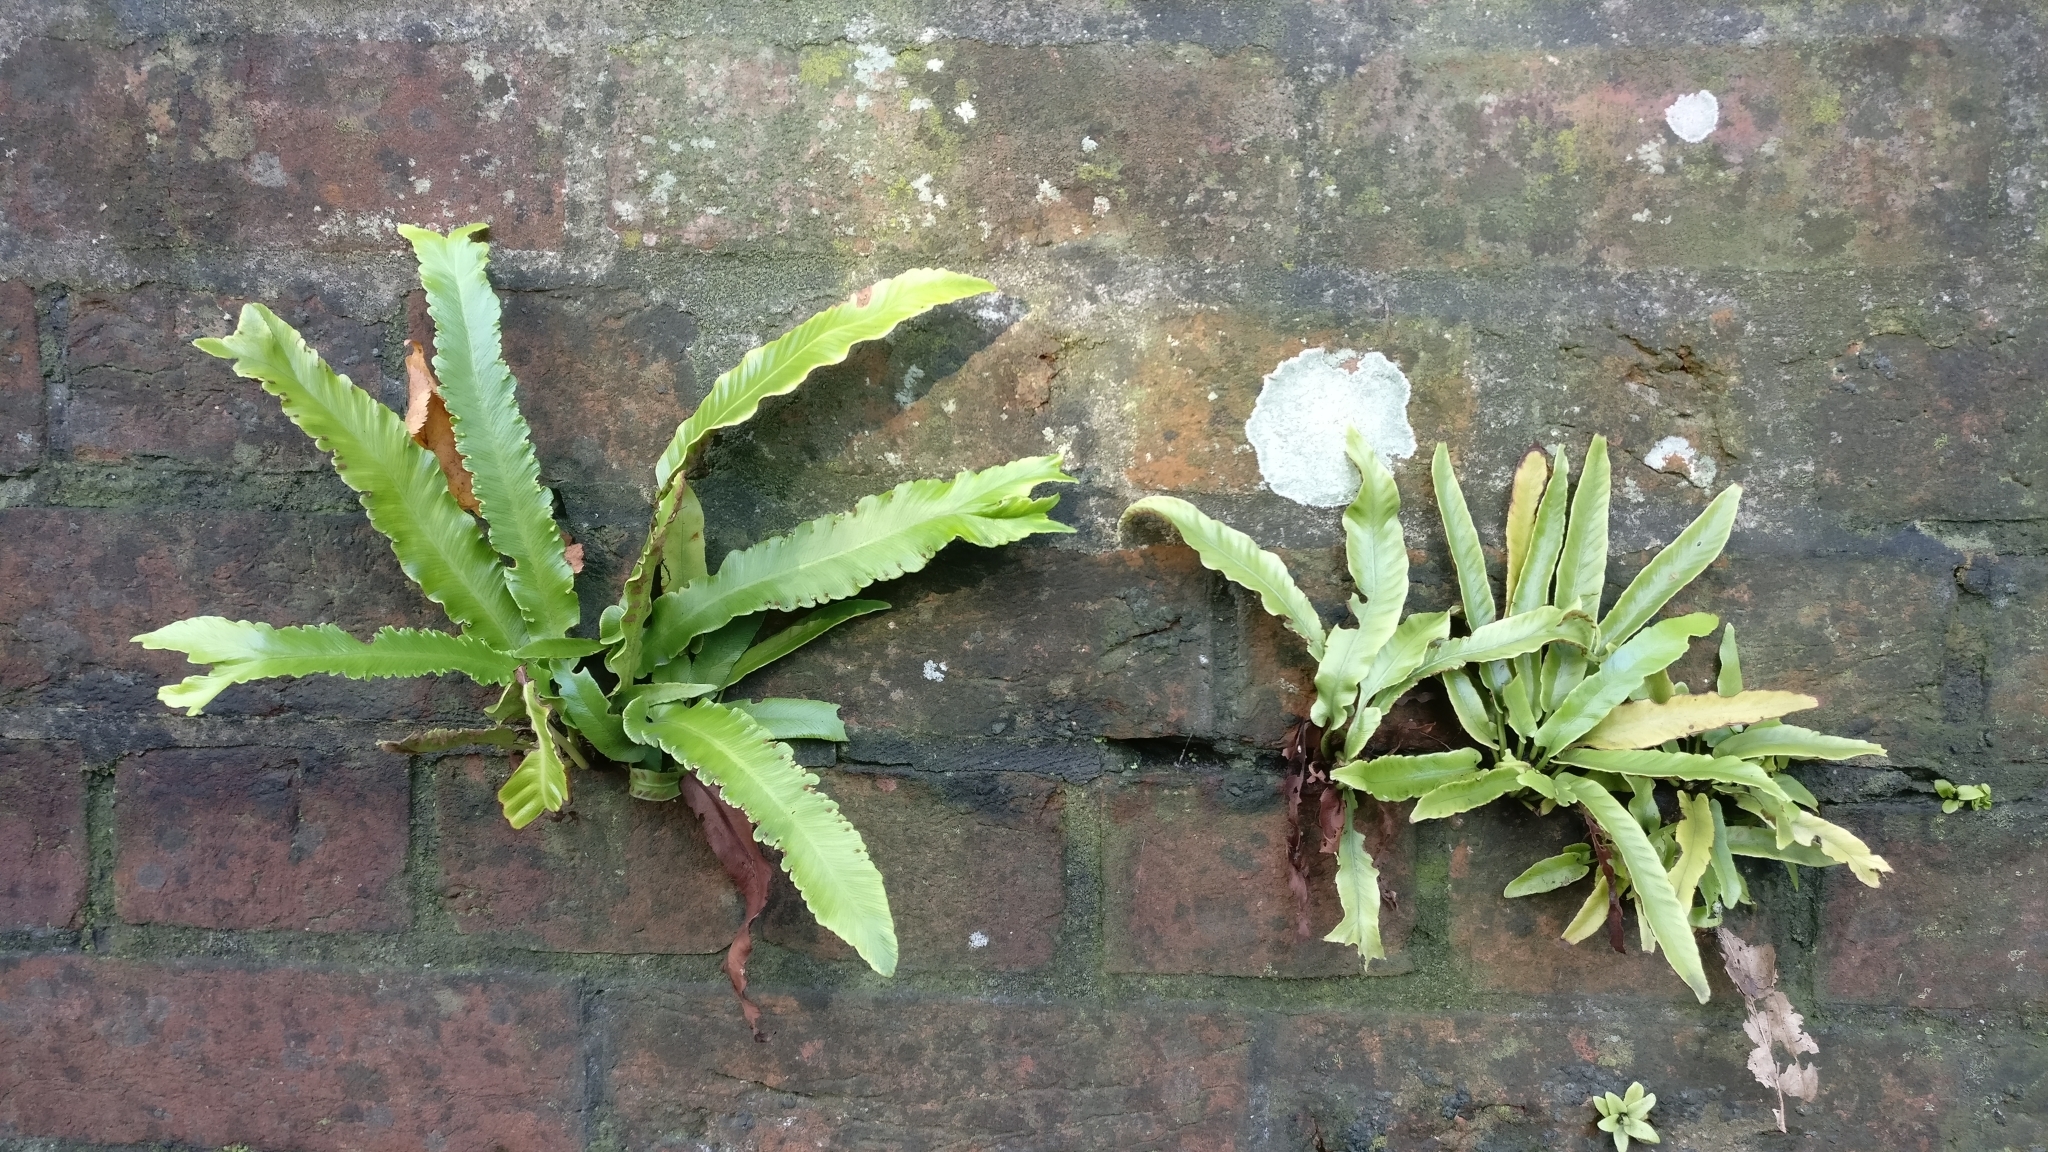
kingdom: Plantae
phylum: Tracheophyta
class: Polypodiopsida
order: Polypodiales
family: Aspleniaceae
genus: Asplenium
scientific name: Asplenium scolopendrium
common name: Hart's-tongue fern
